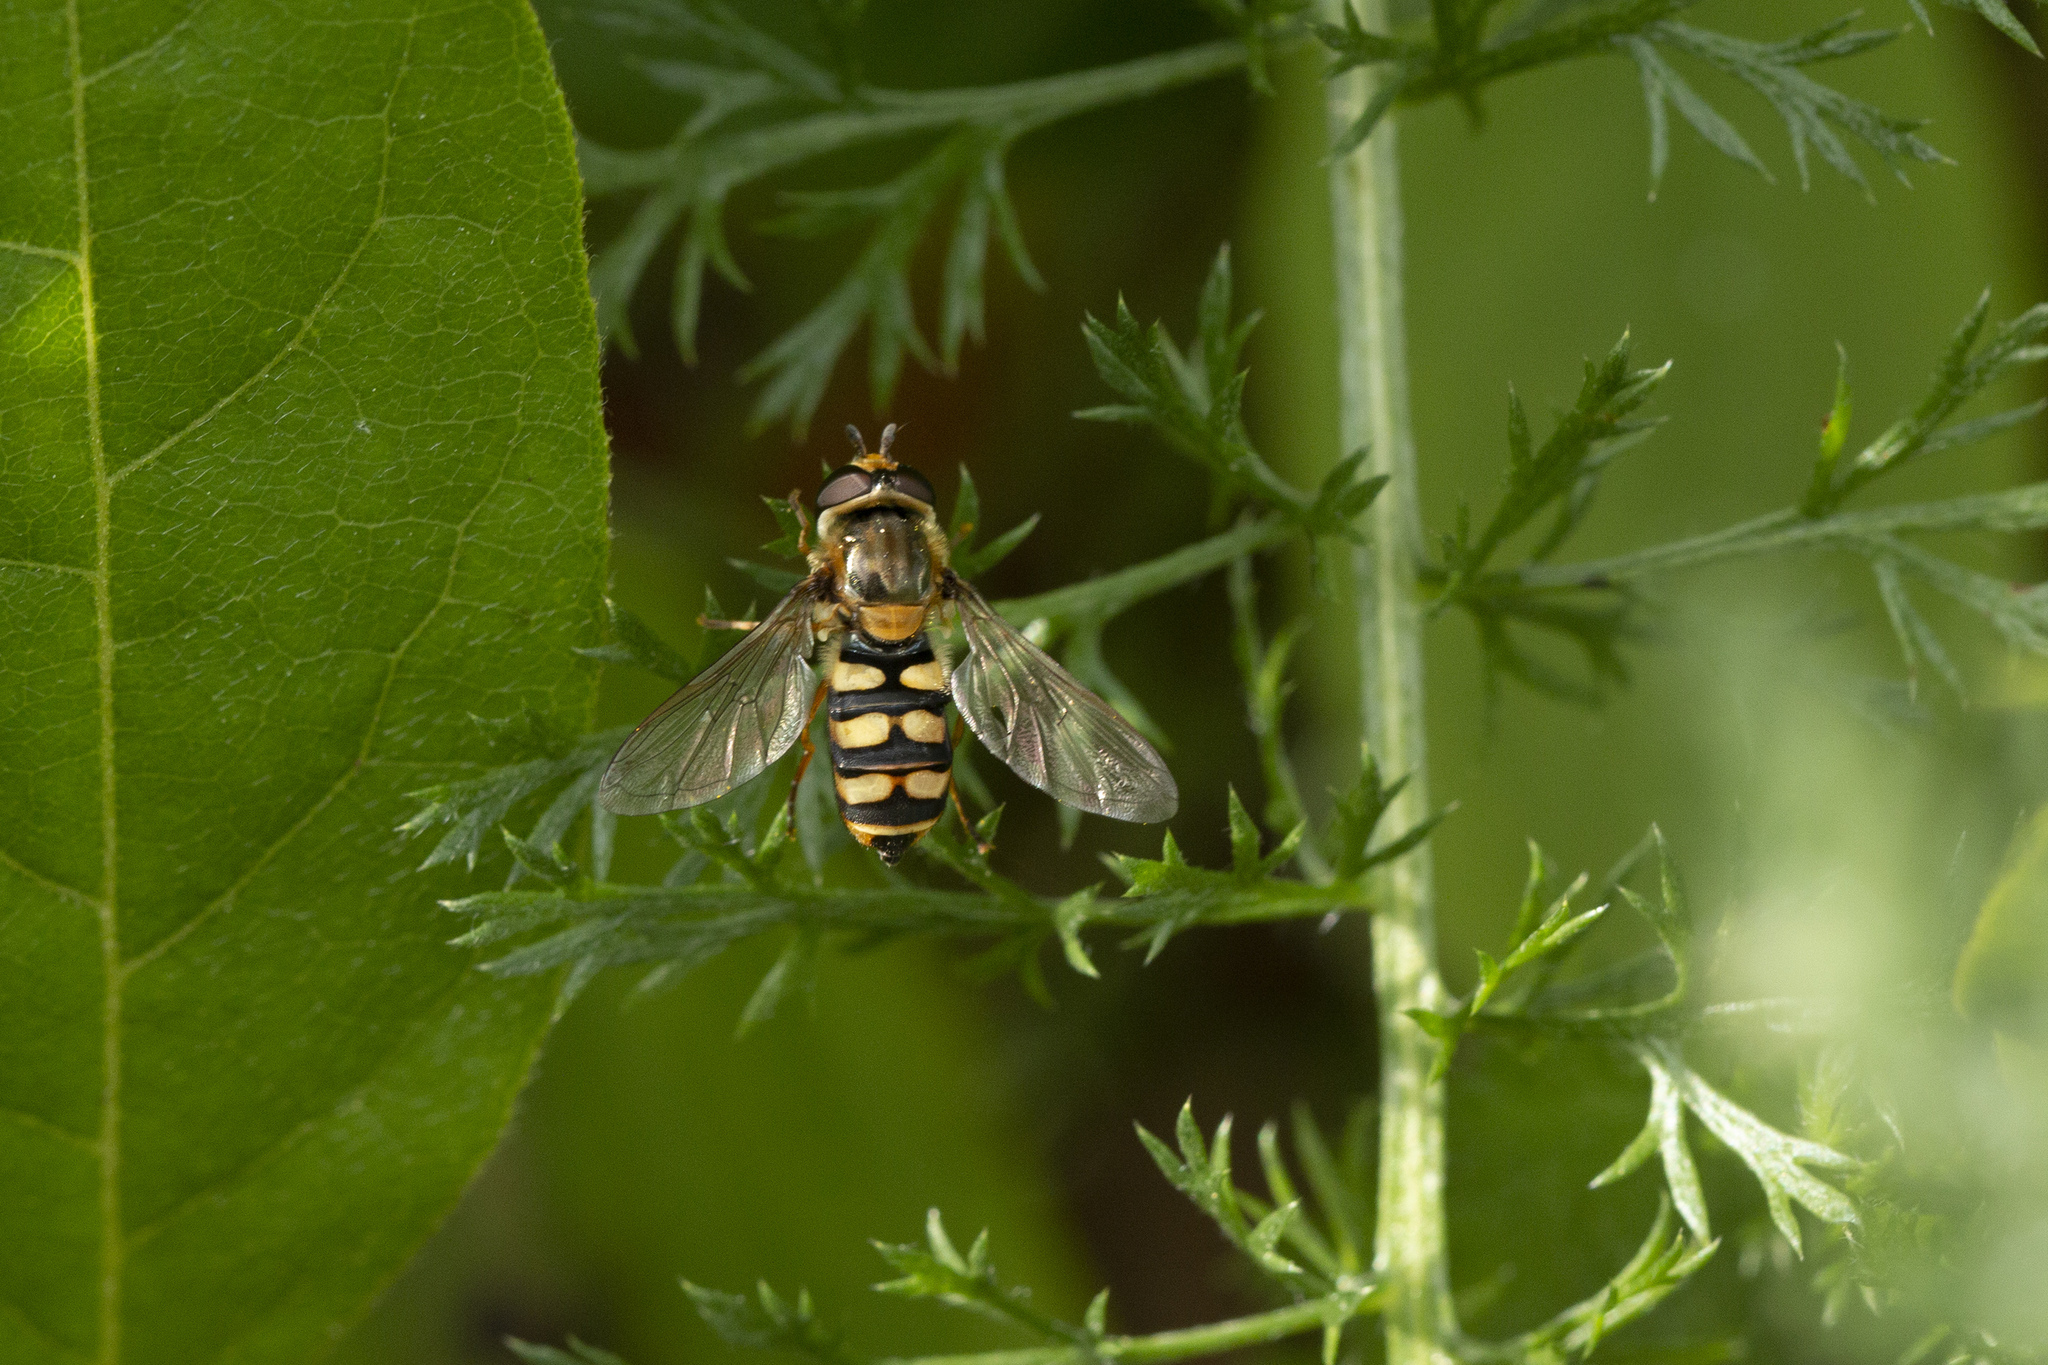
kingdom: Animalia
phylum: Arthropoda
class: Insecta
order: Diptera
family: Syrphidae
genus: Eupeodes
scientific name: Eupeodes corollae
